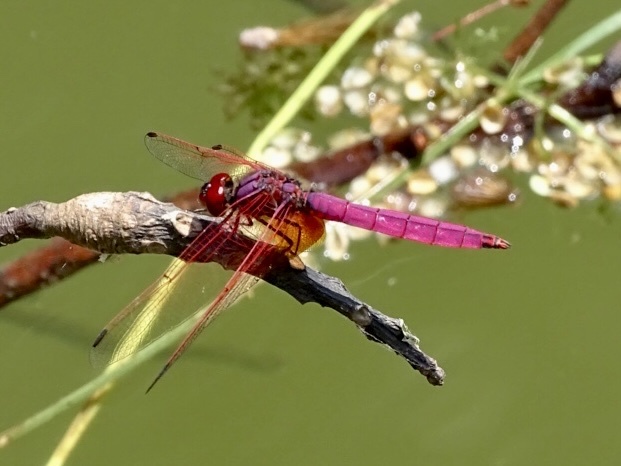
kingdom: Animalia
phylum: Arthropoda
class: Insecta
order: Odonata
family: Libellulidae
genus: Trithemis
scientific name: Trithemis aurora
